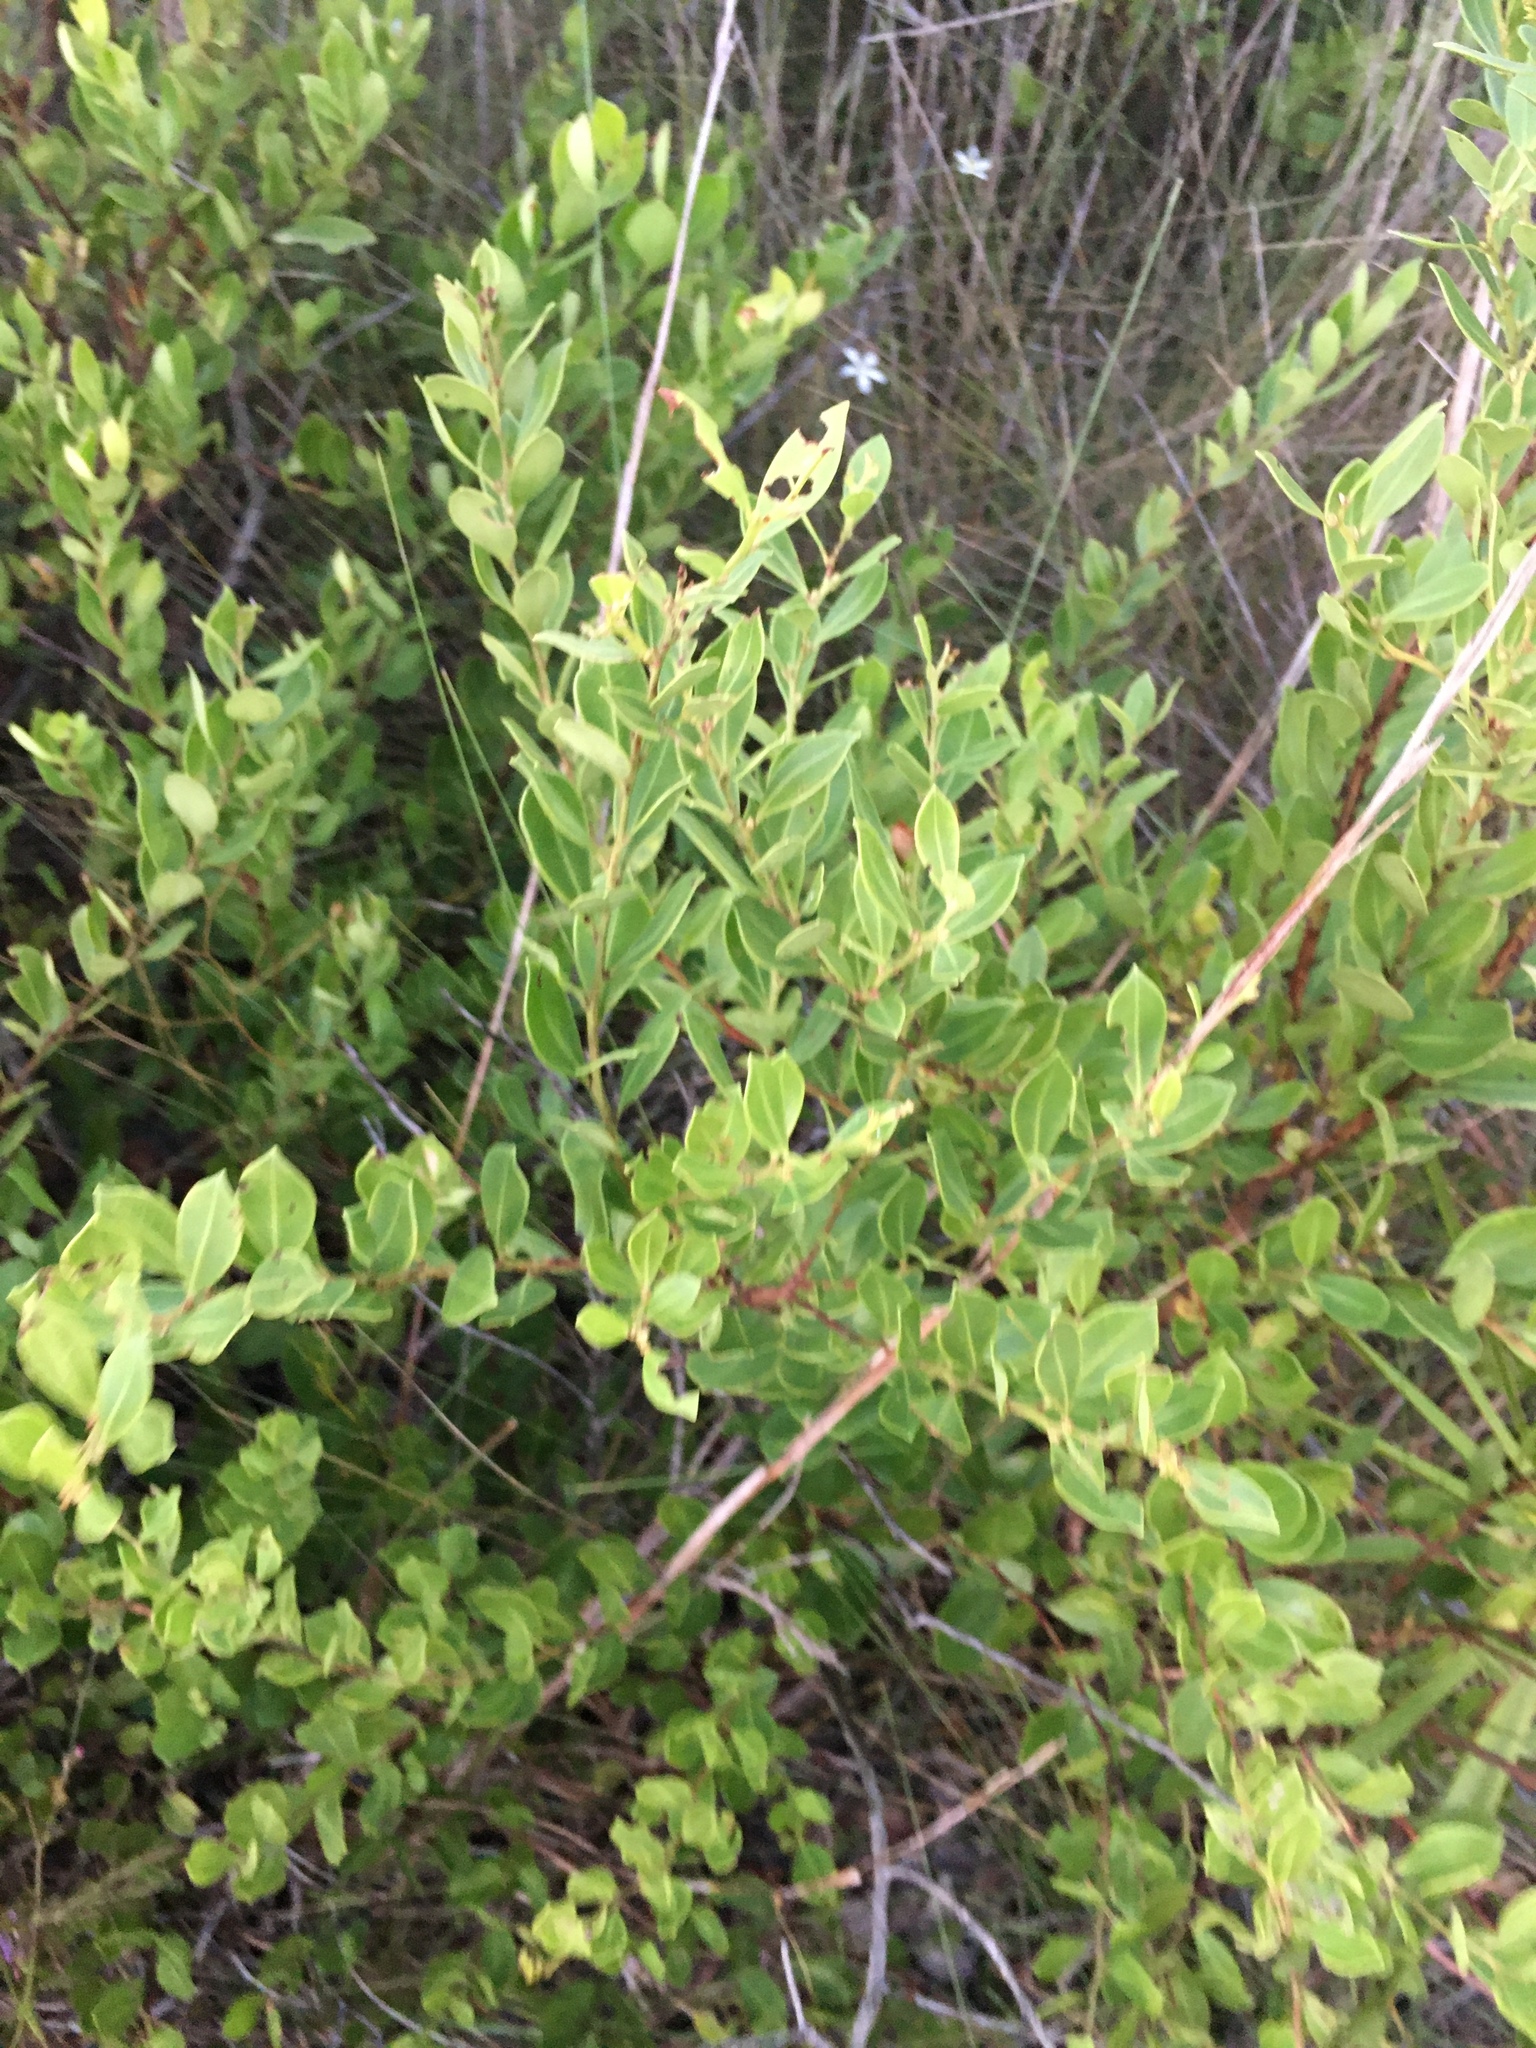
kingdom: Plantae
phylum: Tracheophyta
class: Magnoliopsida
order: Ericales
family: Ericaceae
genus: Lyonia
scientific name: Lyonia lucida
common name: Fetterbush
